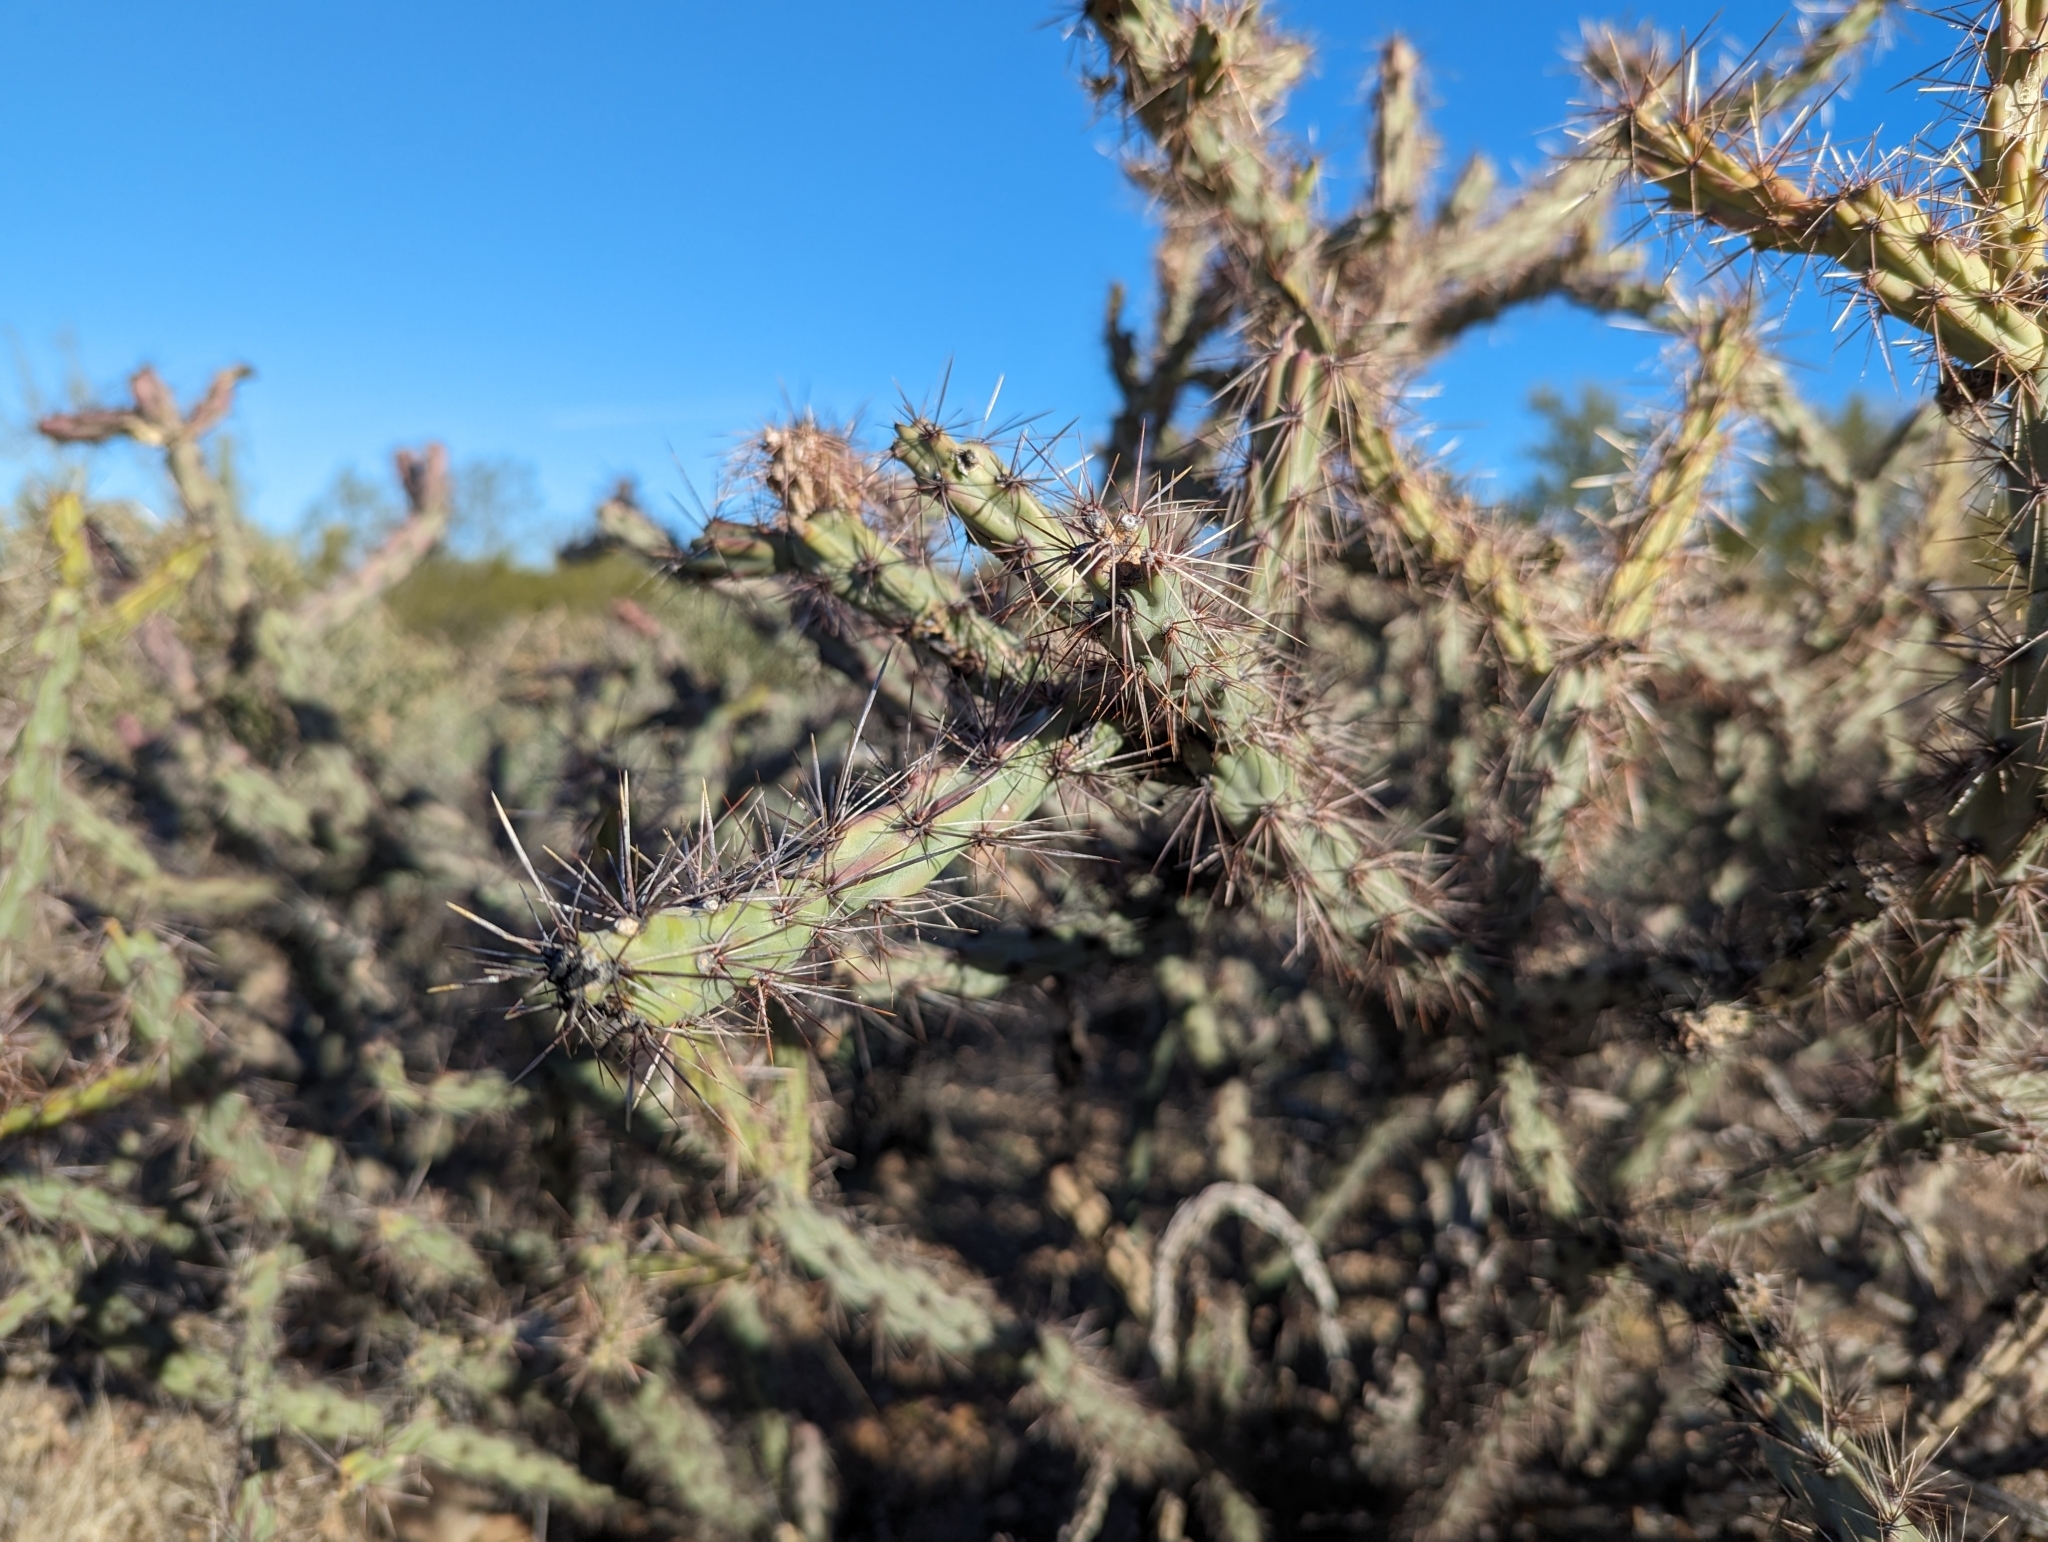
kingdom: Plantae
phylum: Tracheophyta
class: Magnoliopsida
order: Caryophyllales
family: Cactaceae
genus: Cylindropuntia
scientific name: Cylindropuntia acanthocarpa
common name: Buckhorn cholla
